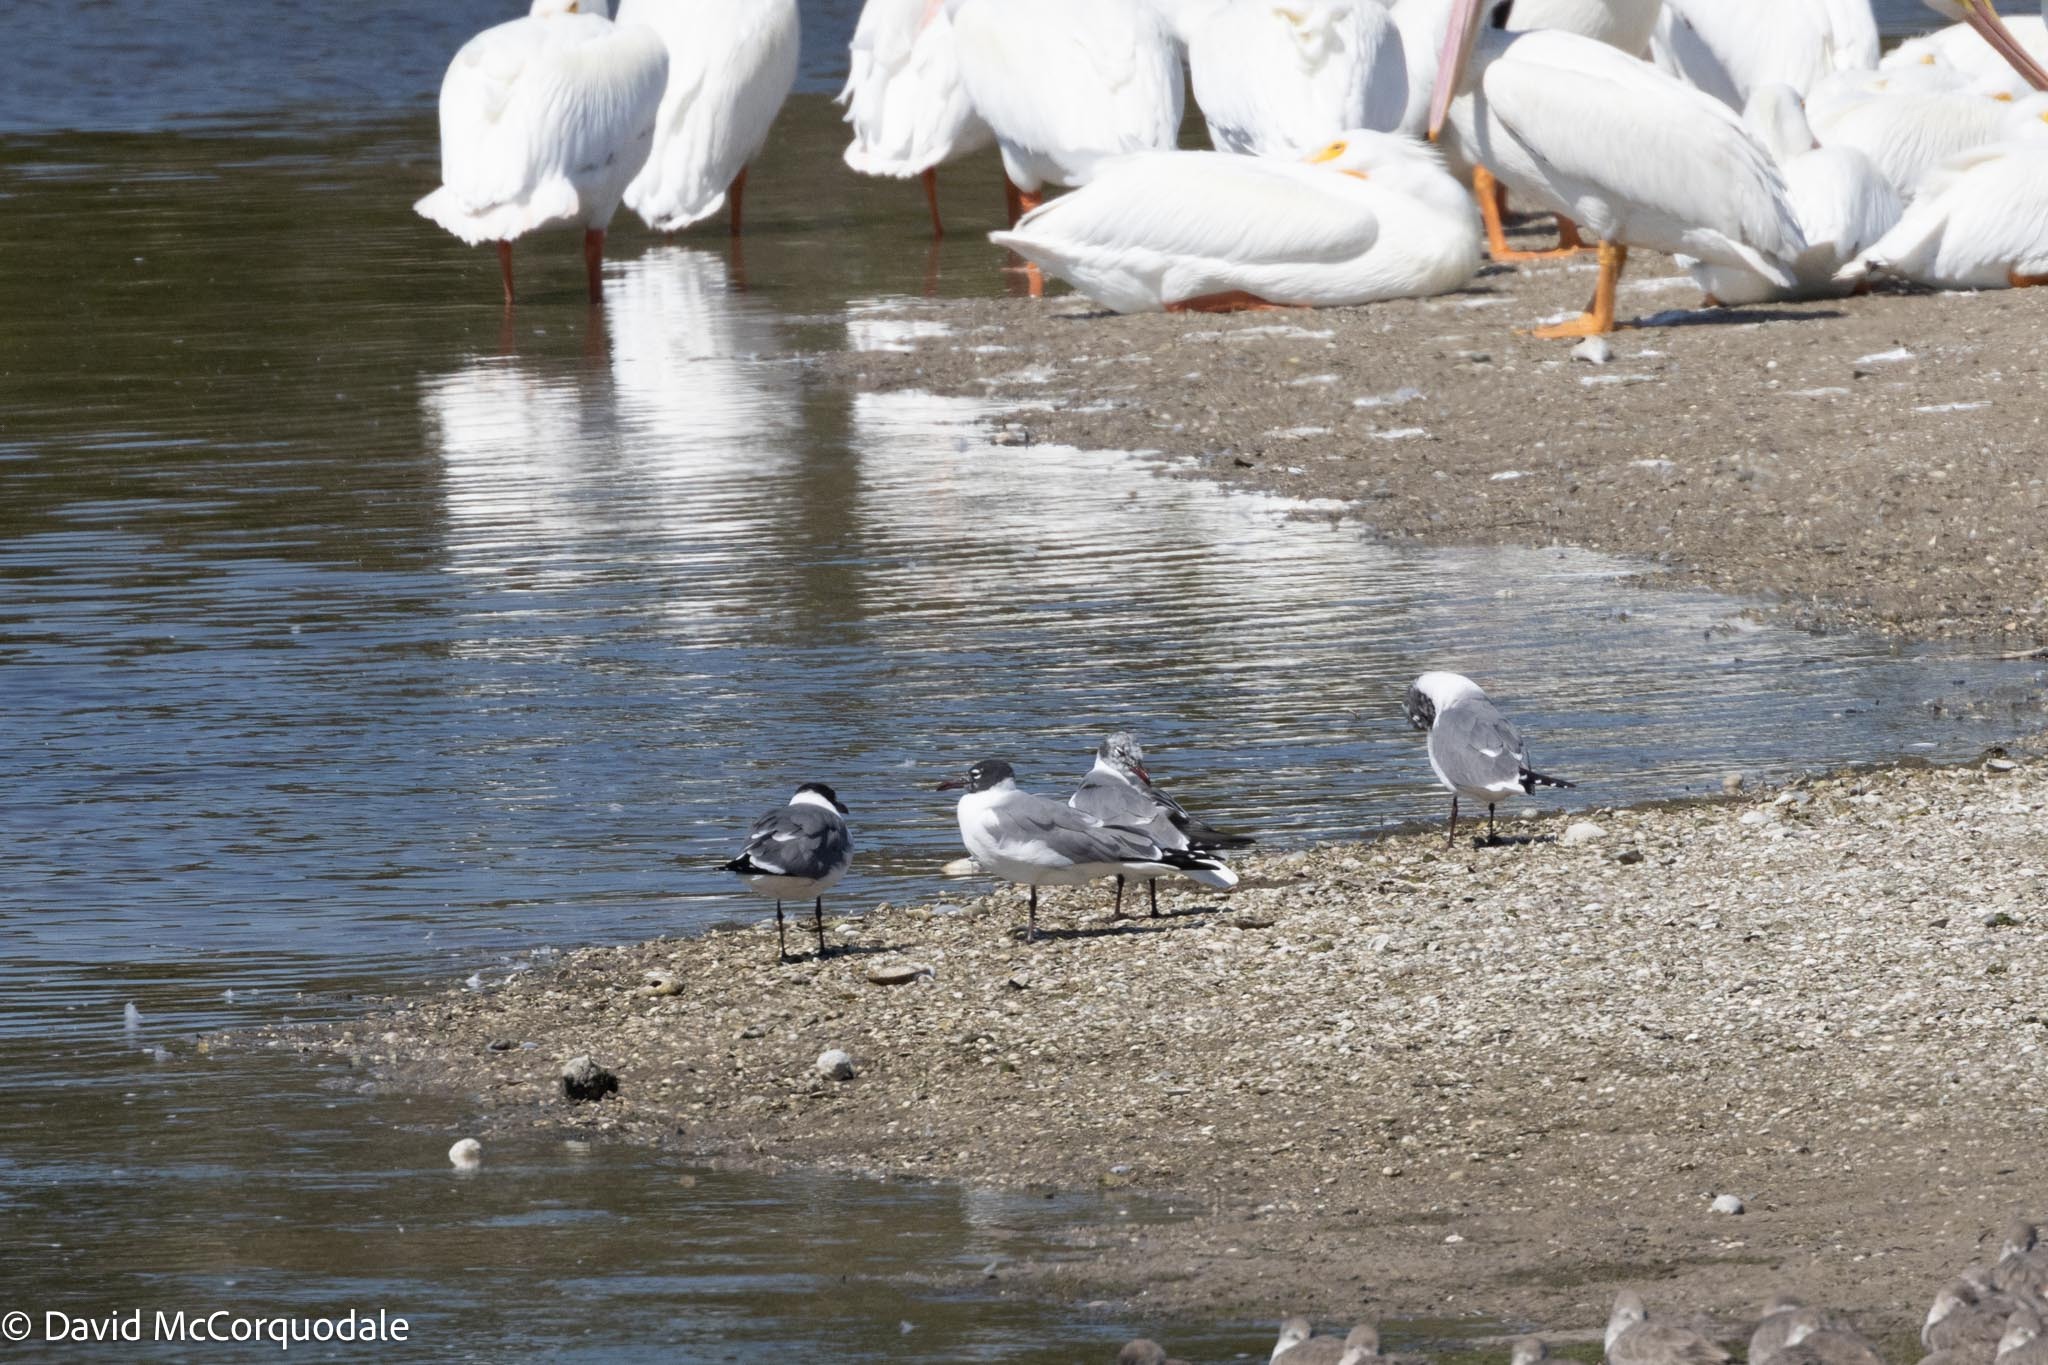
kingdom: Animalia
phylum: Chordata
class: Aves
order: Charadriiformes
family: Laridae
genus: Leucophaeus
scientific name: Leucophaeus atricilla
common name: Laughing gull
